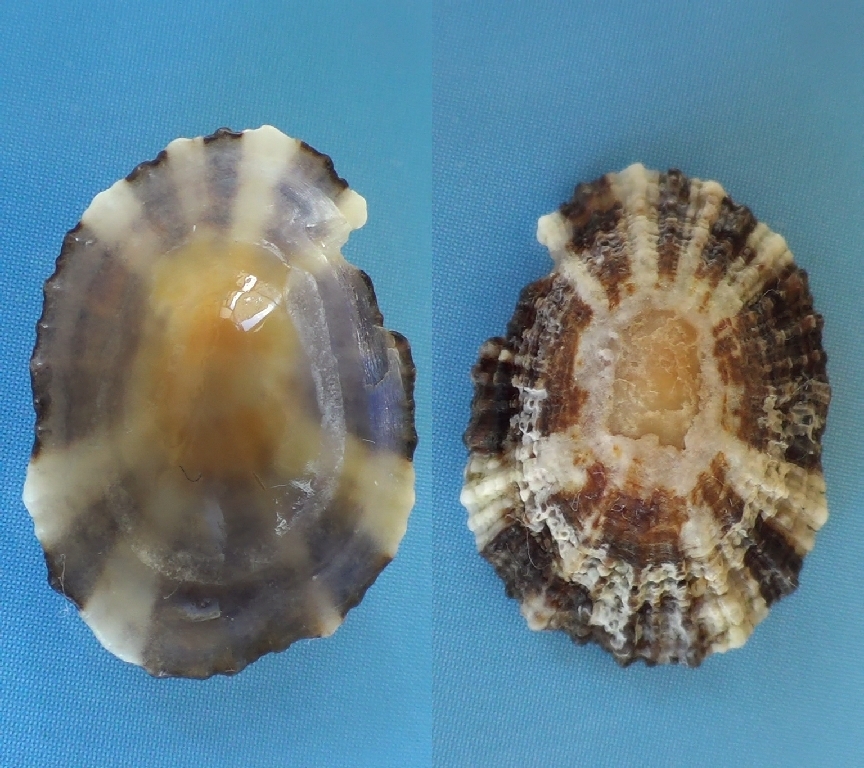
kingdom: Animalia
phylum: Mollusca
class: Gastropoda
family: Patellidae
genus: Patella
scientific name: Patella ulyssiponensis
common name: China limpet
